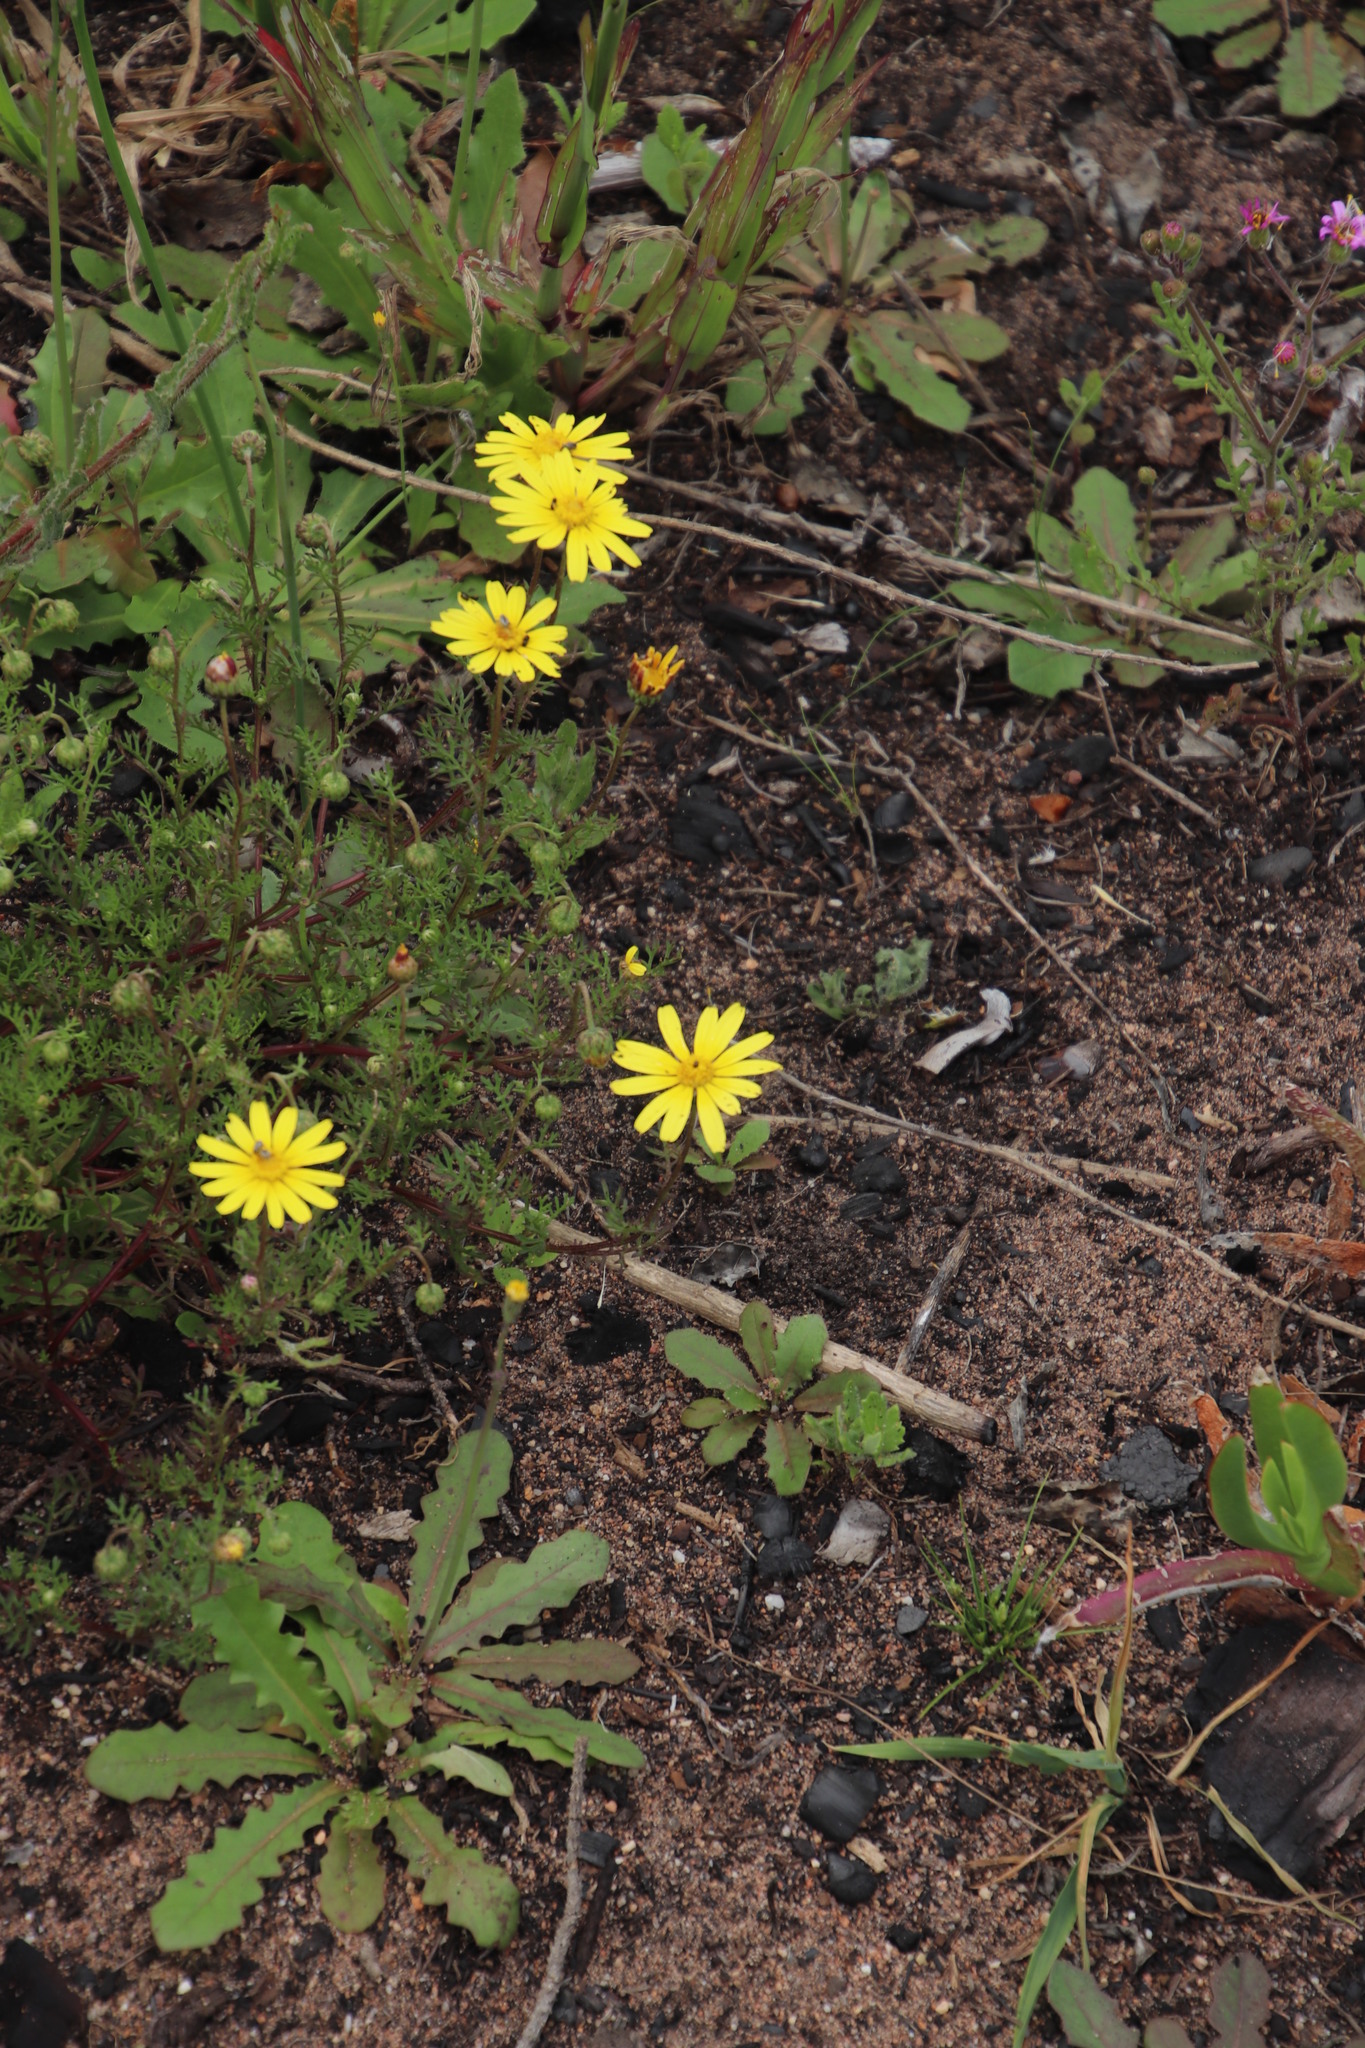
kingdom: Plantae
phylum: Tracheophyta
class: Magnoliopsida
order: Asterales
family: Asteraceae
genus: Ursinia
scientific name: Ursinia anthemoides
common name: Ursinia
